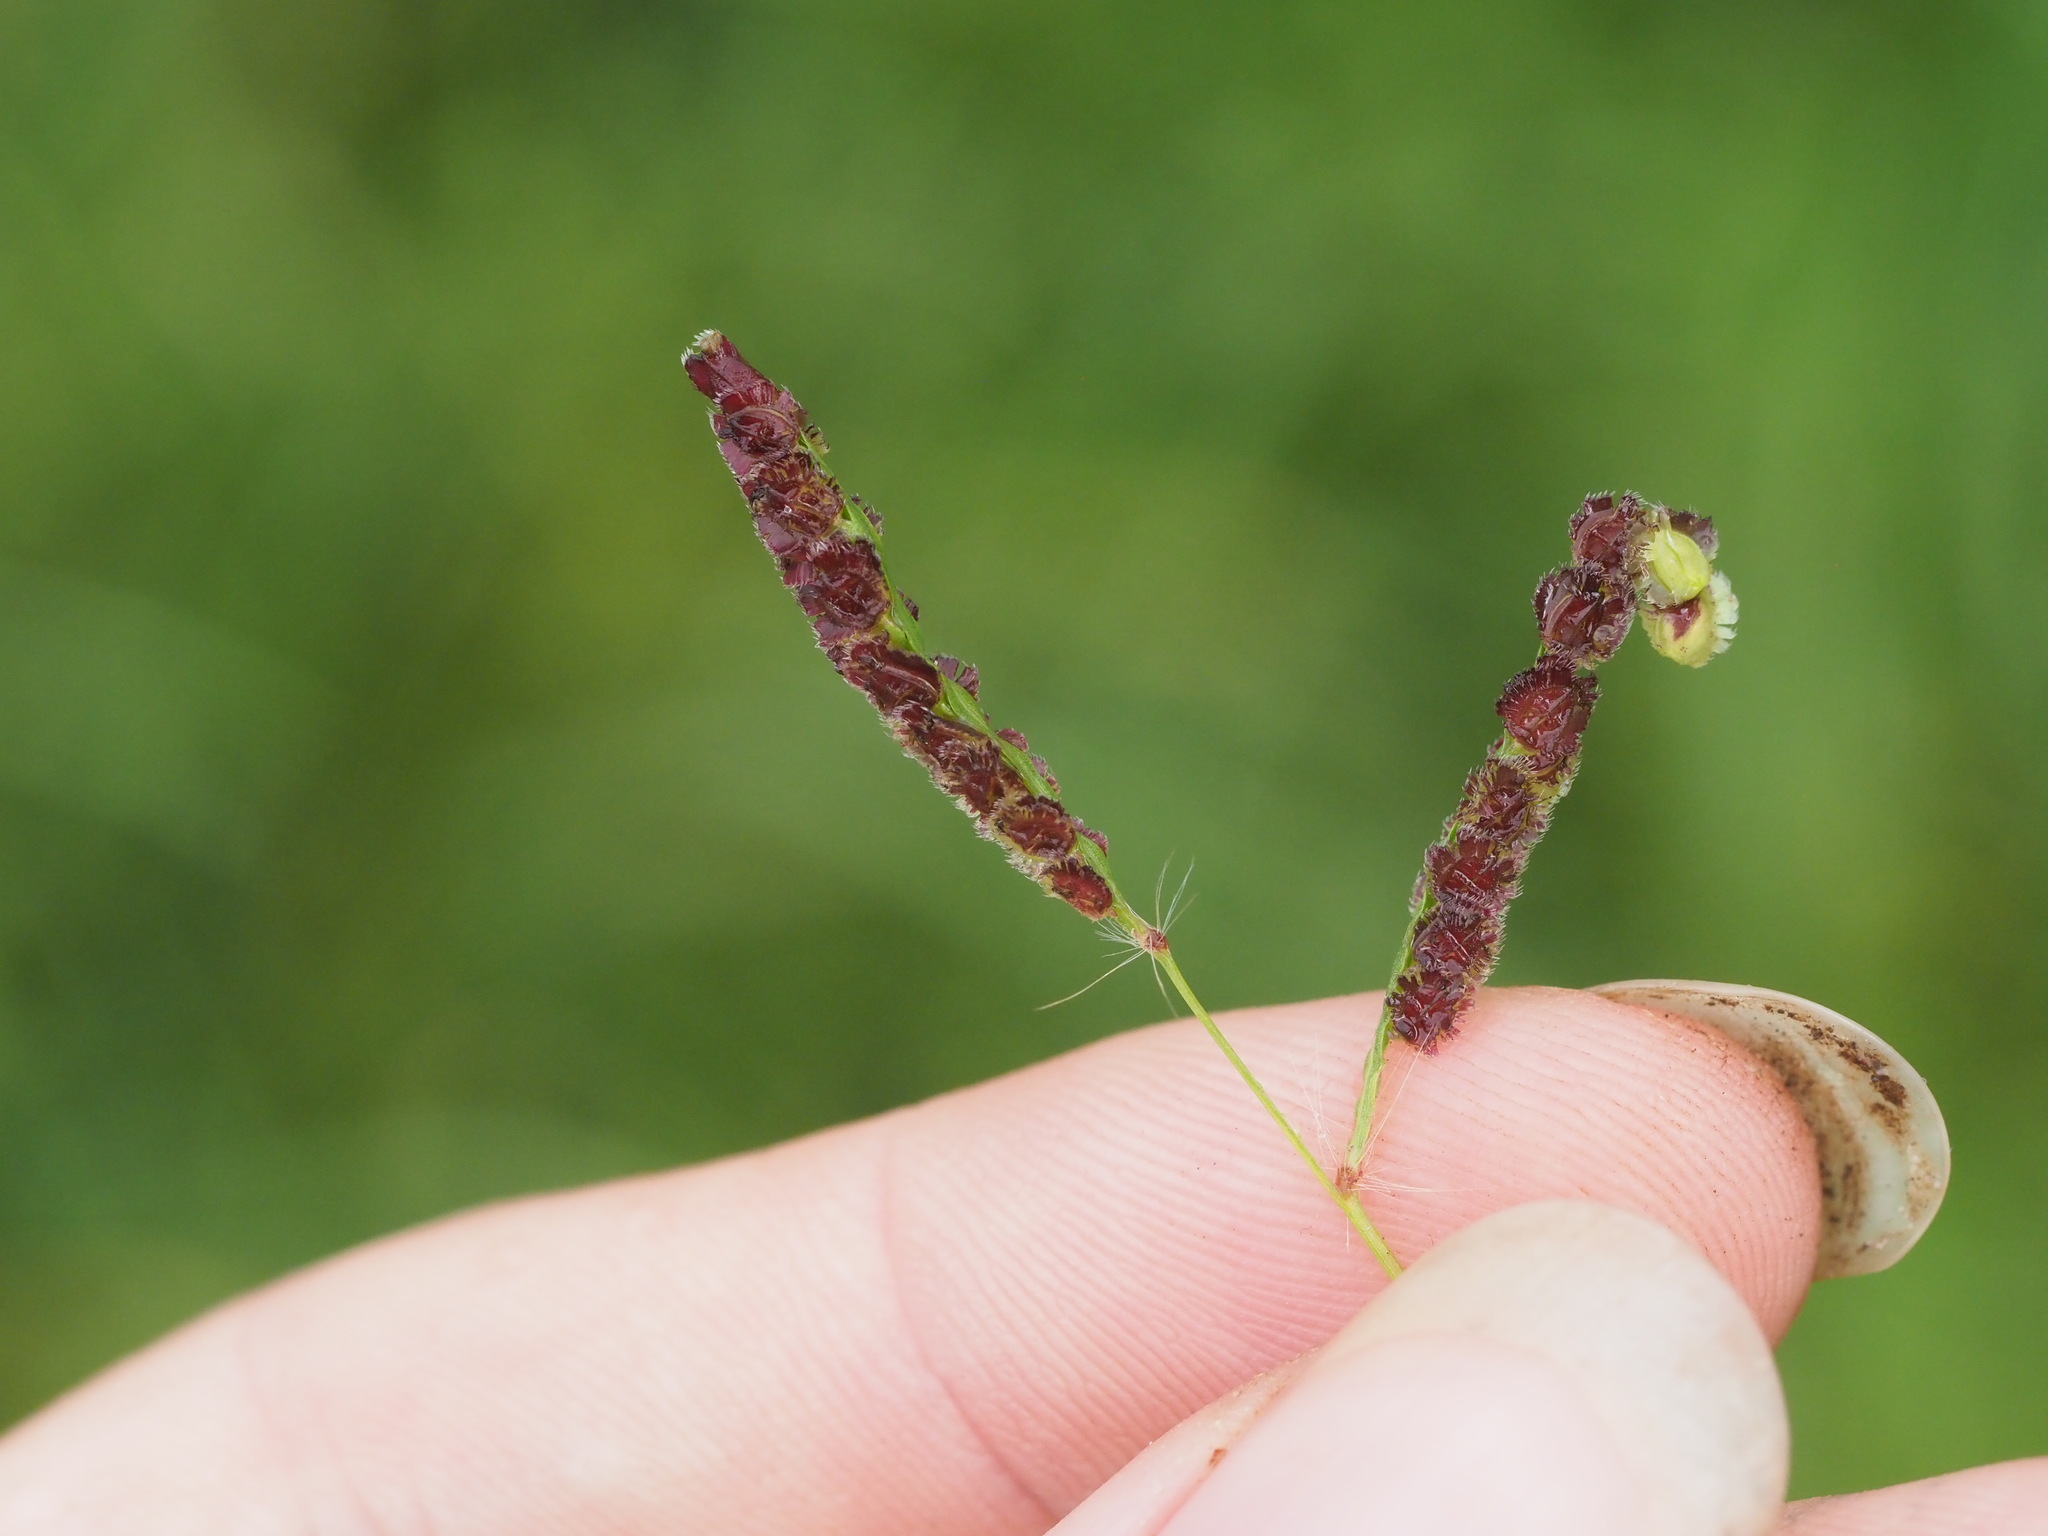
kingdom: Plantae
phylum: Tracheophyta
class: Liliopsida
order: Poales
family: Poaceae
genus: Paspalum
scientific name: Paspalum fimbriatum
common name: Panama crowngrass
